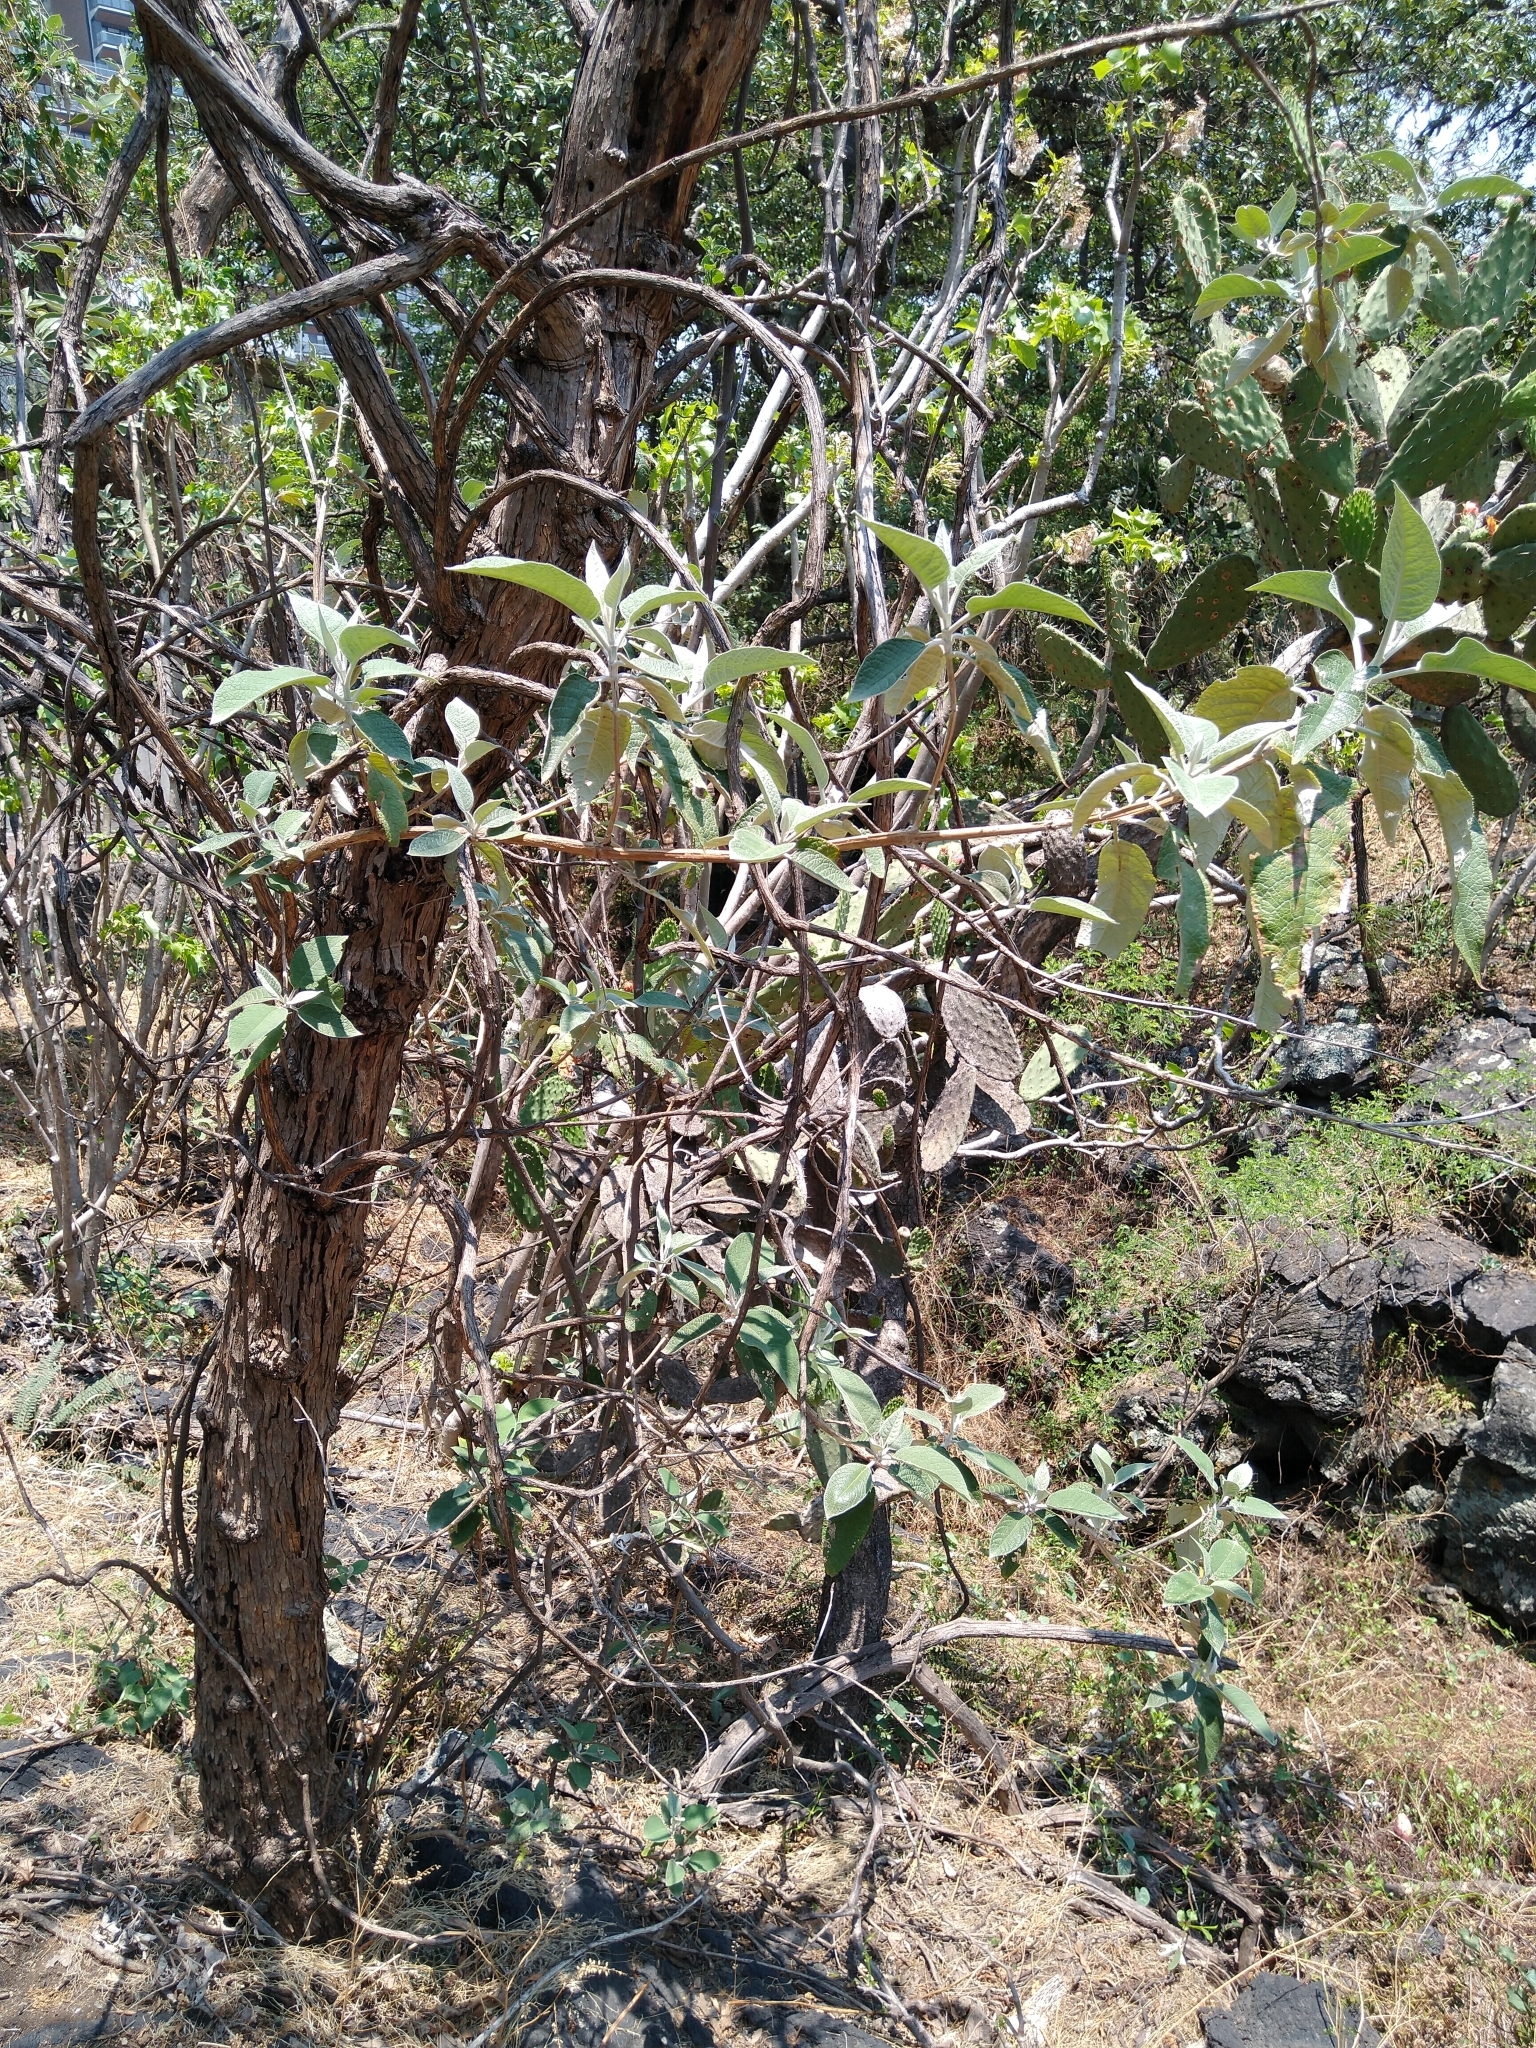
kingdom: Plantae
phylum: Tracheophyta
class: Magnoliopsida
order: Lamiales
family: Scrophulariaceae
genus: Buddleja
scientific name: Buddleja cordata
